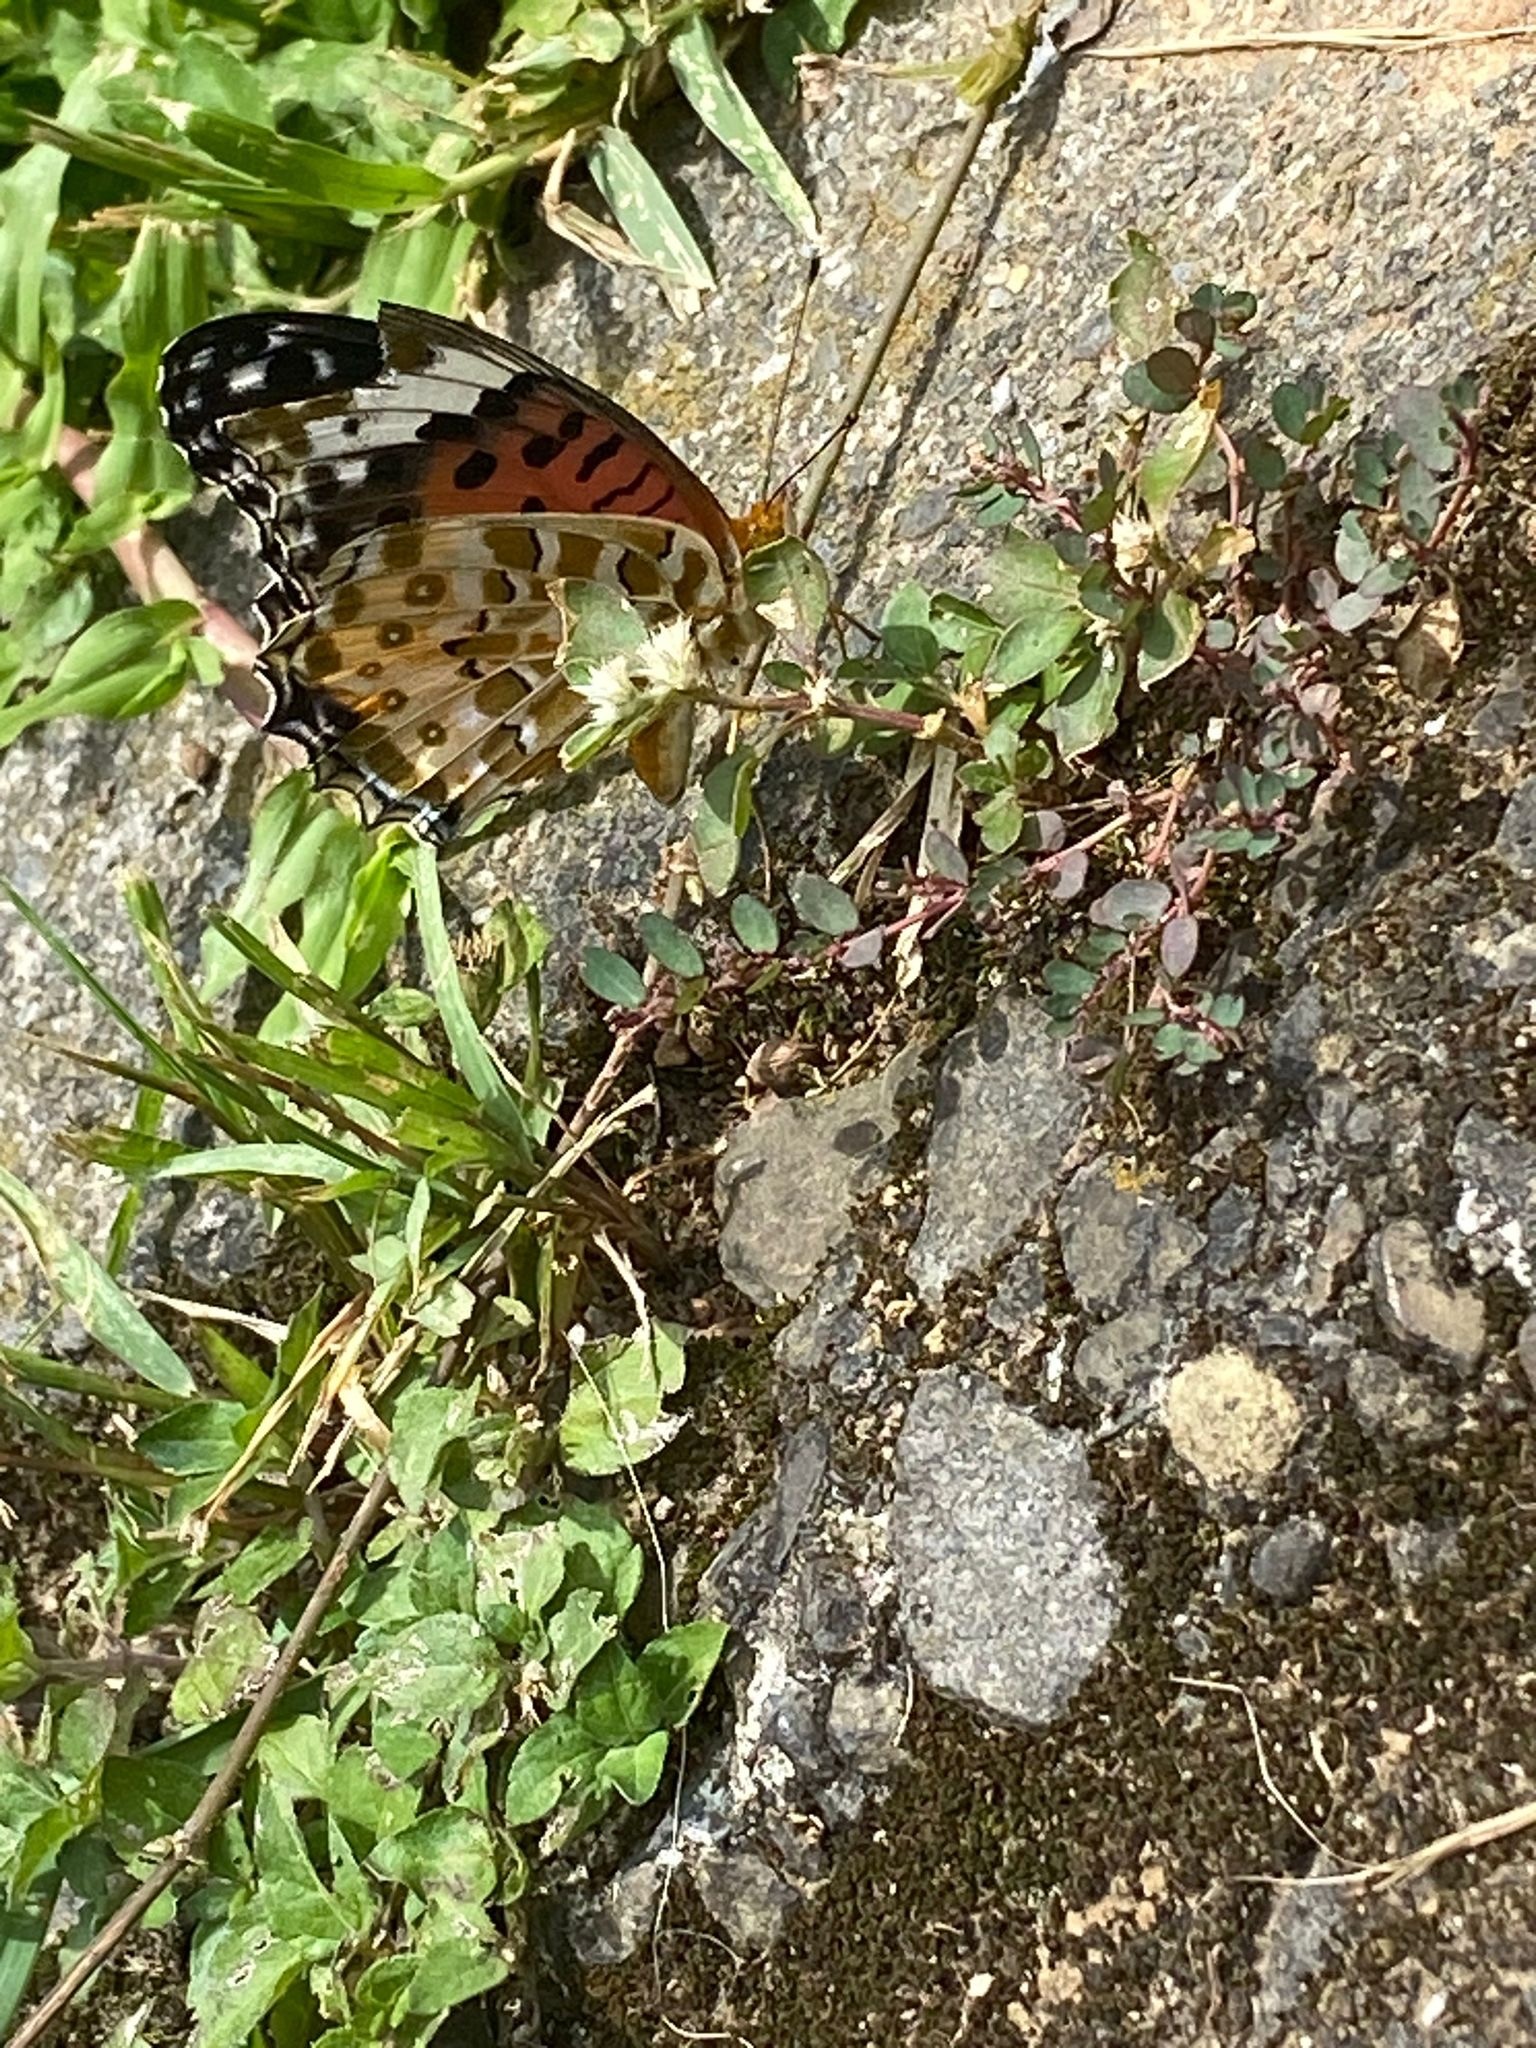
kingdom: Animalia
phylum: Arthropoda
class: Insecta
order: Lepidoptera
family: Nymphalidae
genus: Argynnis
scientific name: Argynnis hyperbius
